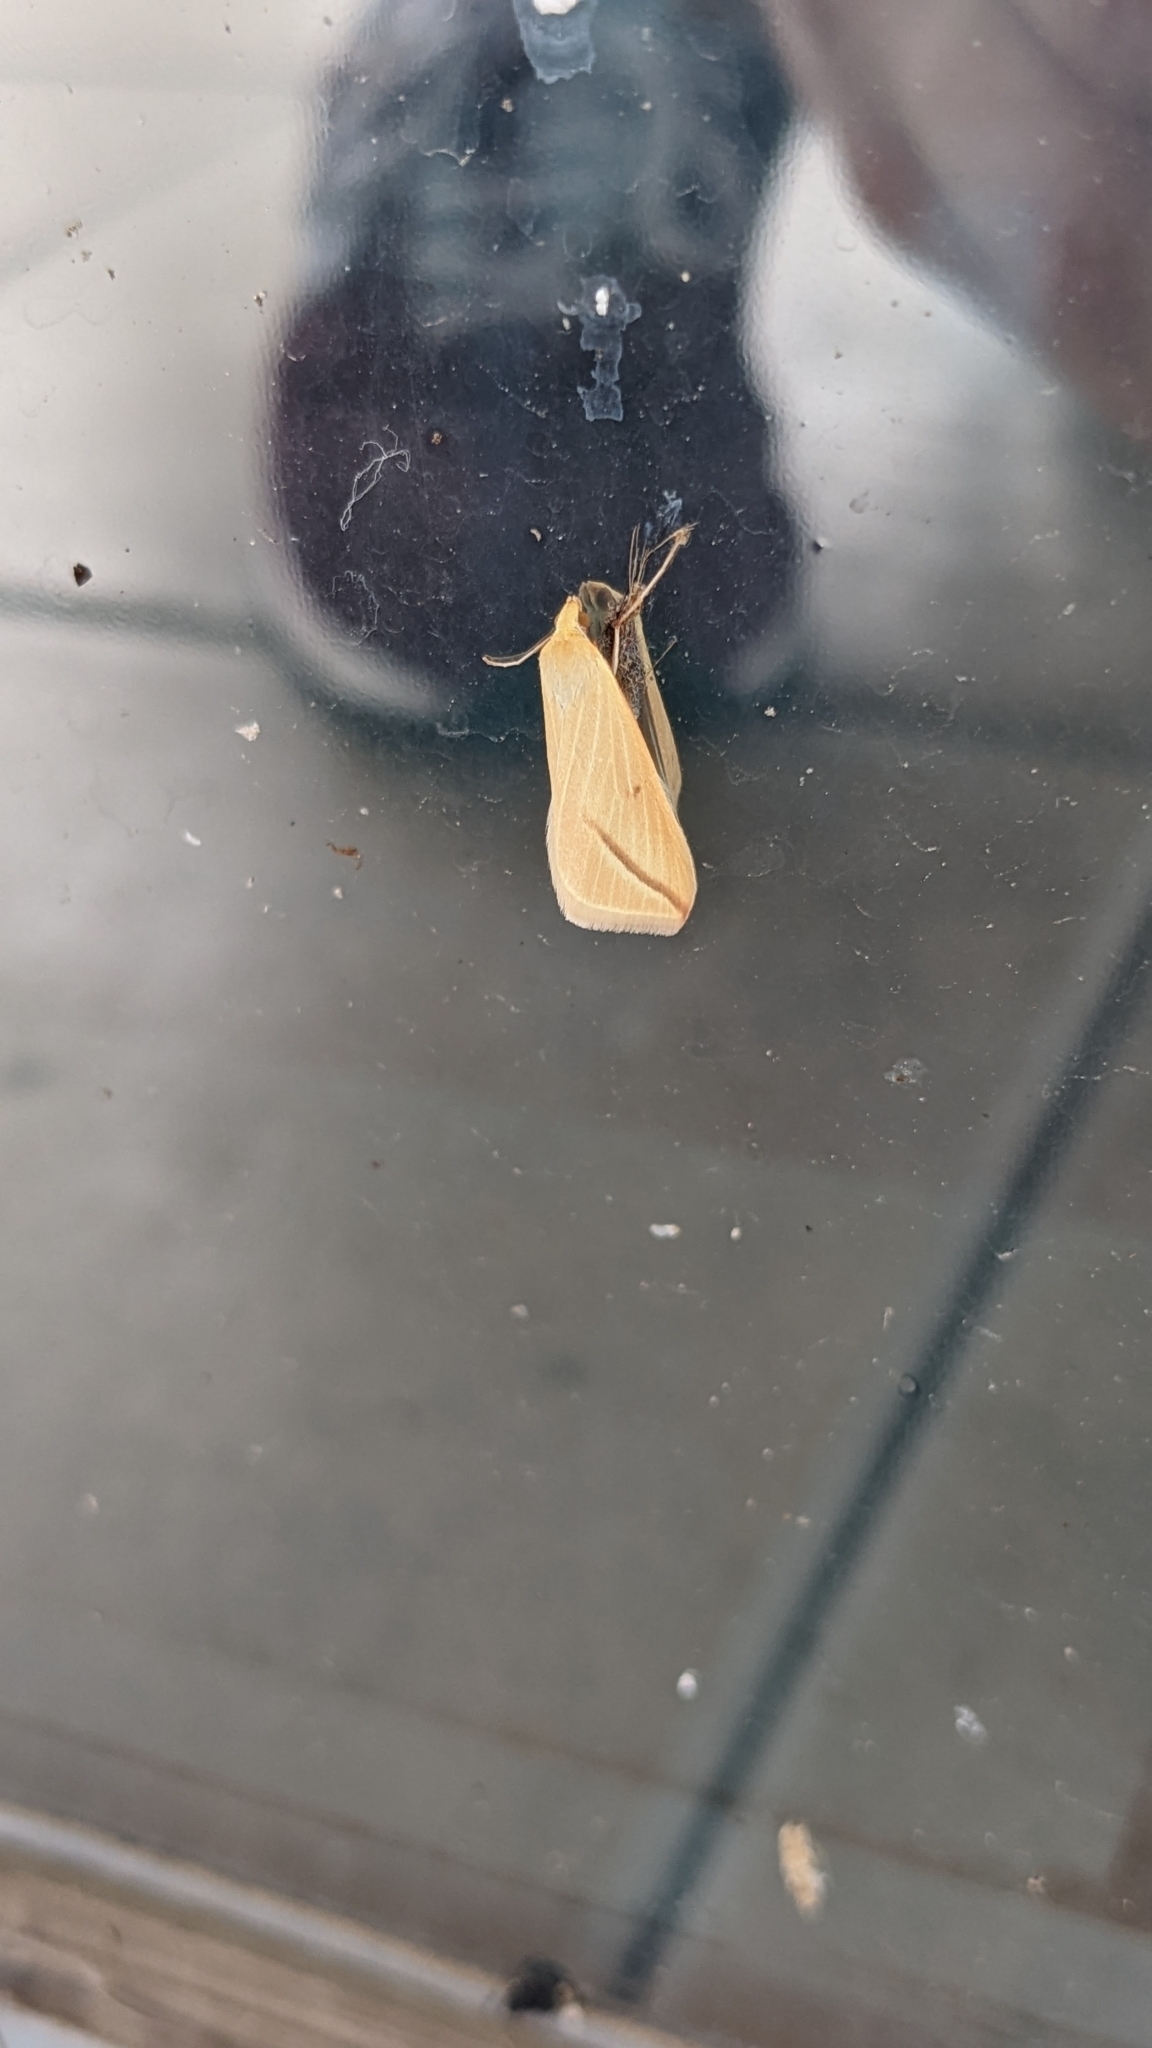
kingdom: Animalia
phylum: Arthropoda
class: Insecta
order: Lepidoptera
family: Geometridae
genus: Rhodometra
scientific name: Rhodometra sacraria
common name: Vestal
